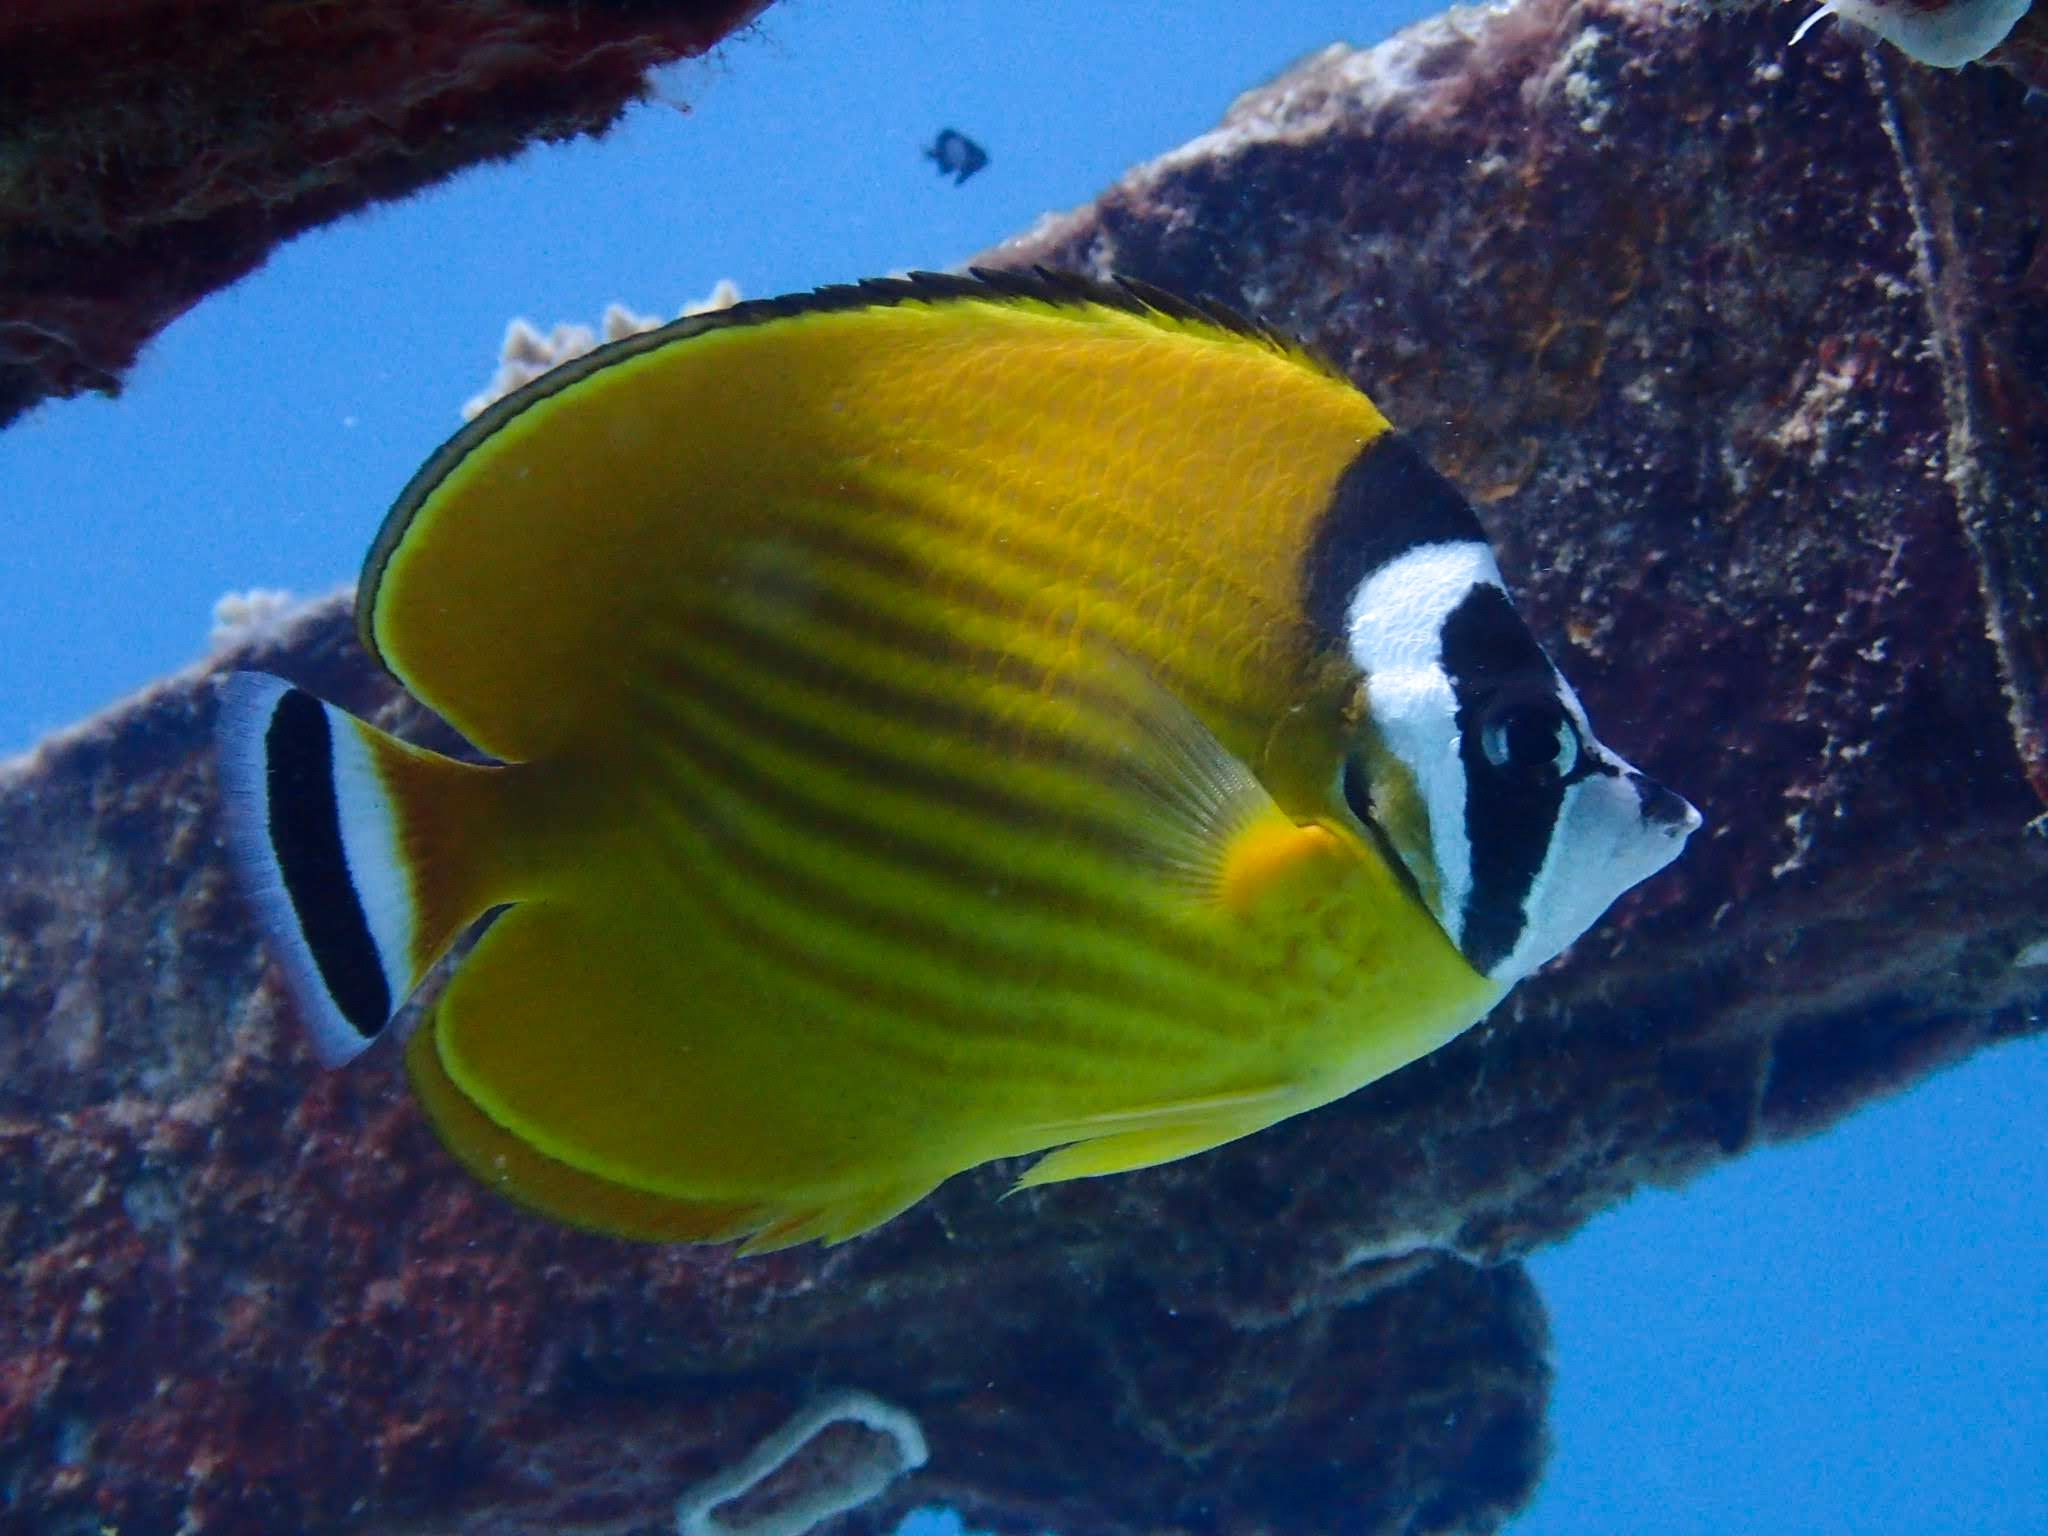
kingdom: Animalia
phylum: Chordata
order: Perciformes
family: Chaetodontidae
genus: Chaetodon
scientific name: Chaetodon wiebeli
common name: Butterflyfish
